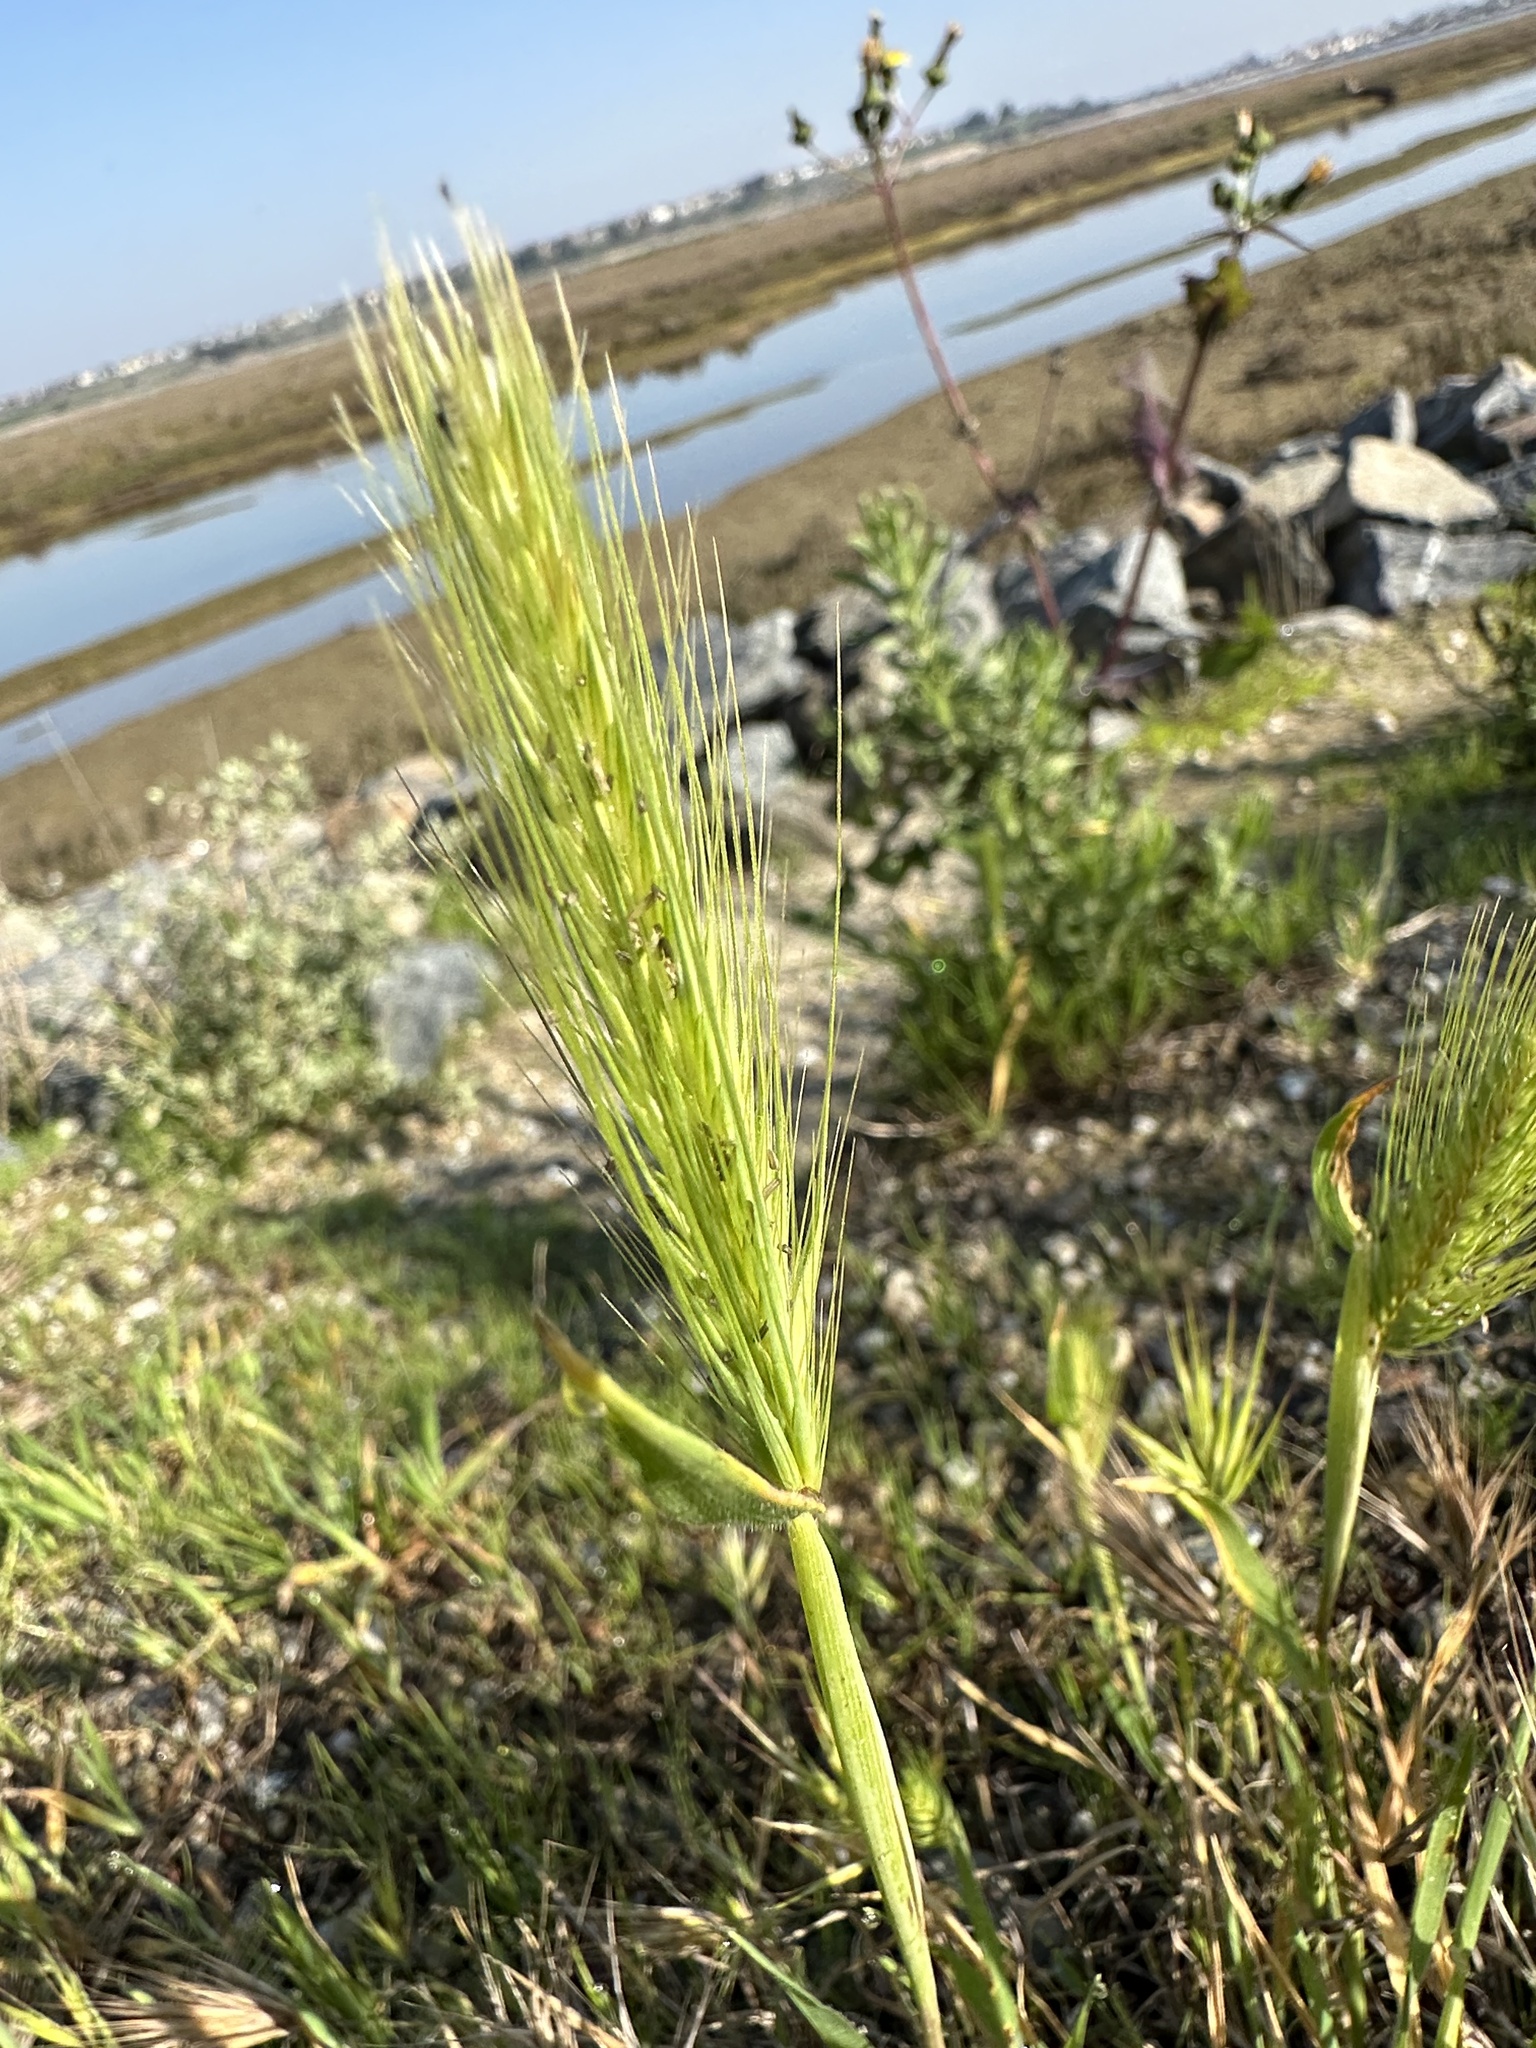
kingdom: Plantae
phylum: Tracheophyta
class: Liliopsida
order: Poales
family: Poaceae
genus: Hordeum
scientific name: Hordeum murinum
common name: Wall barley
